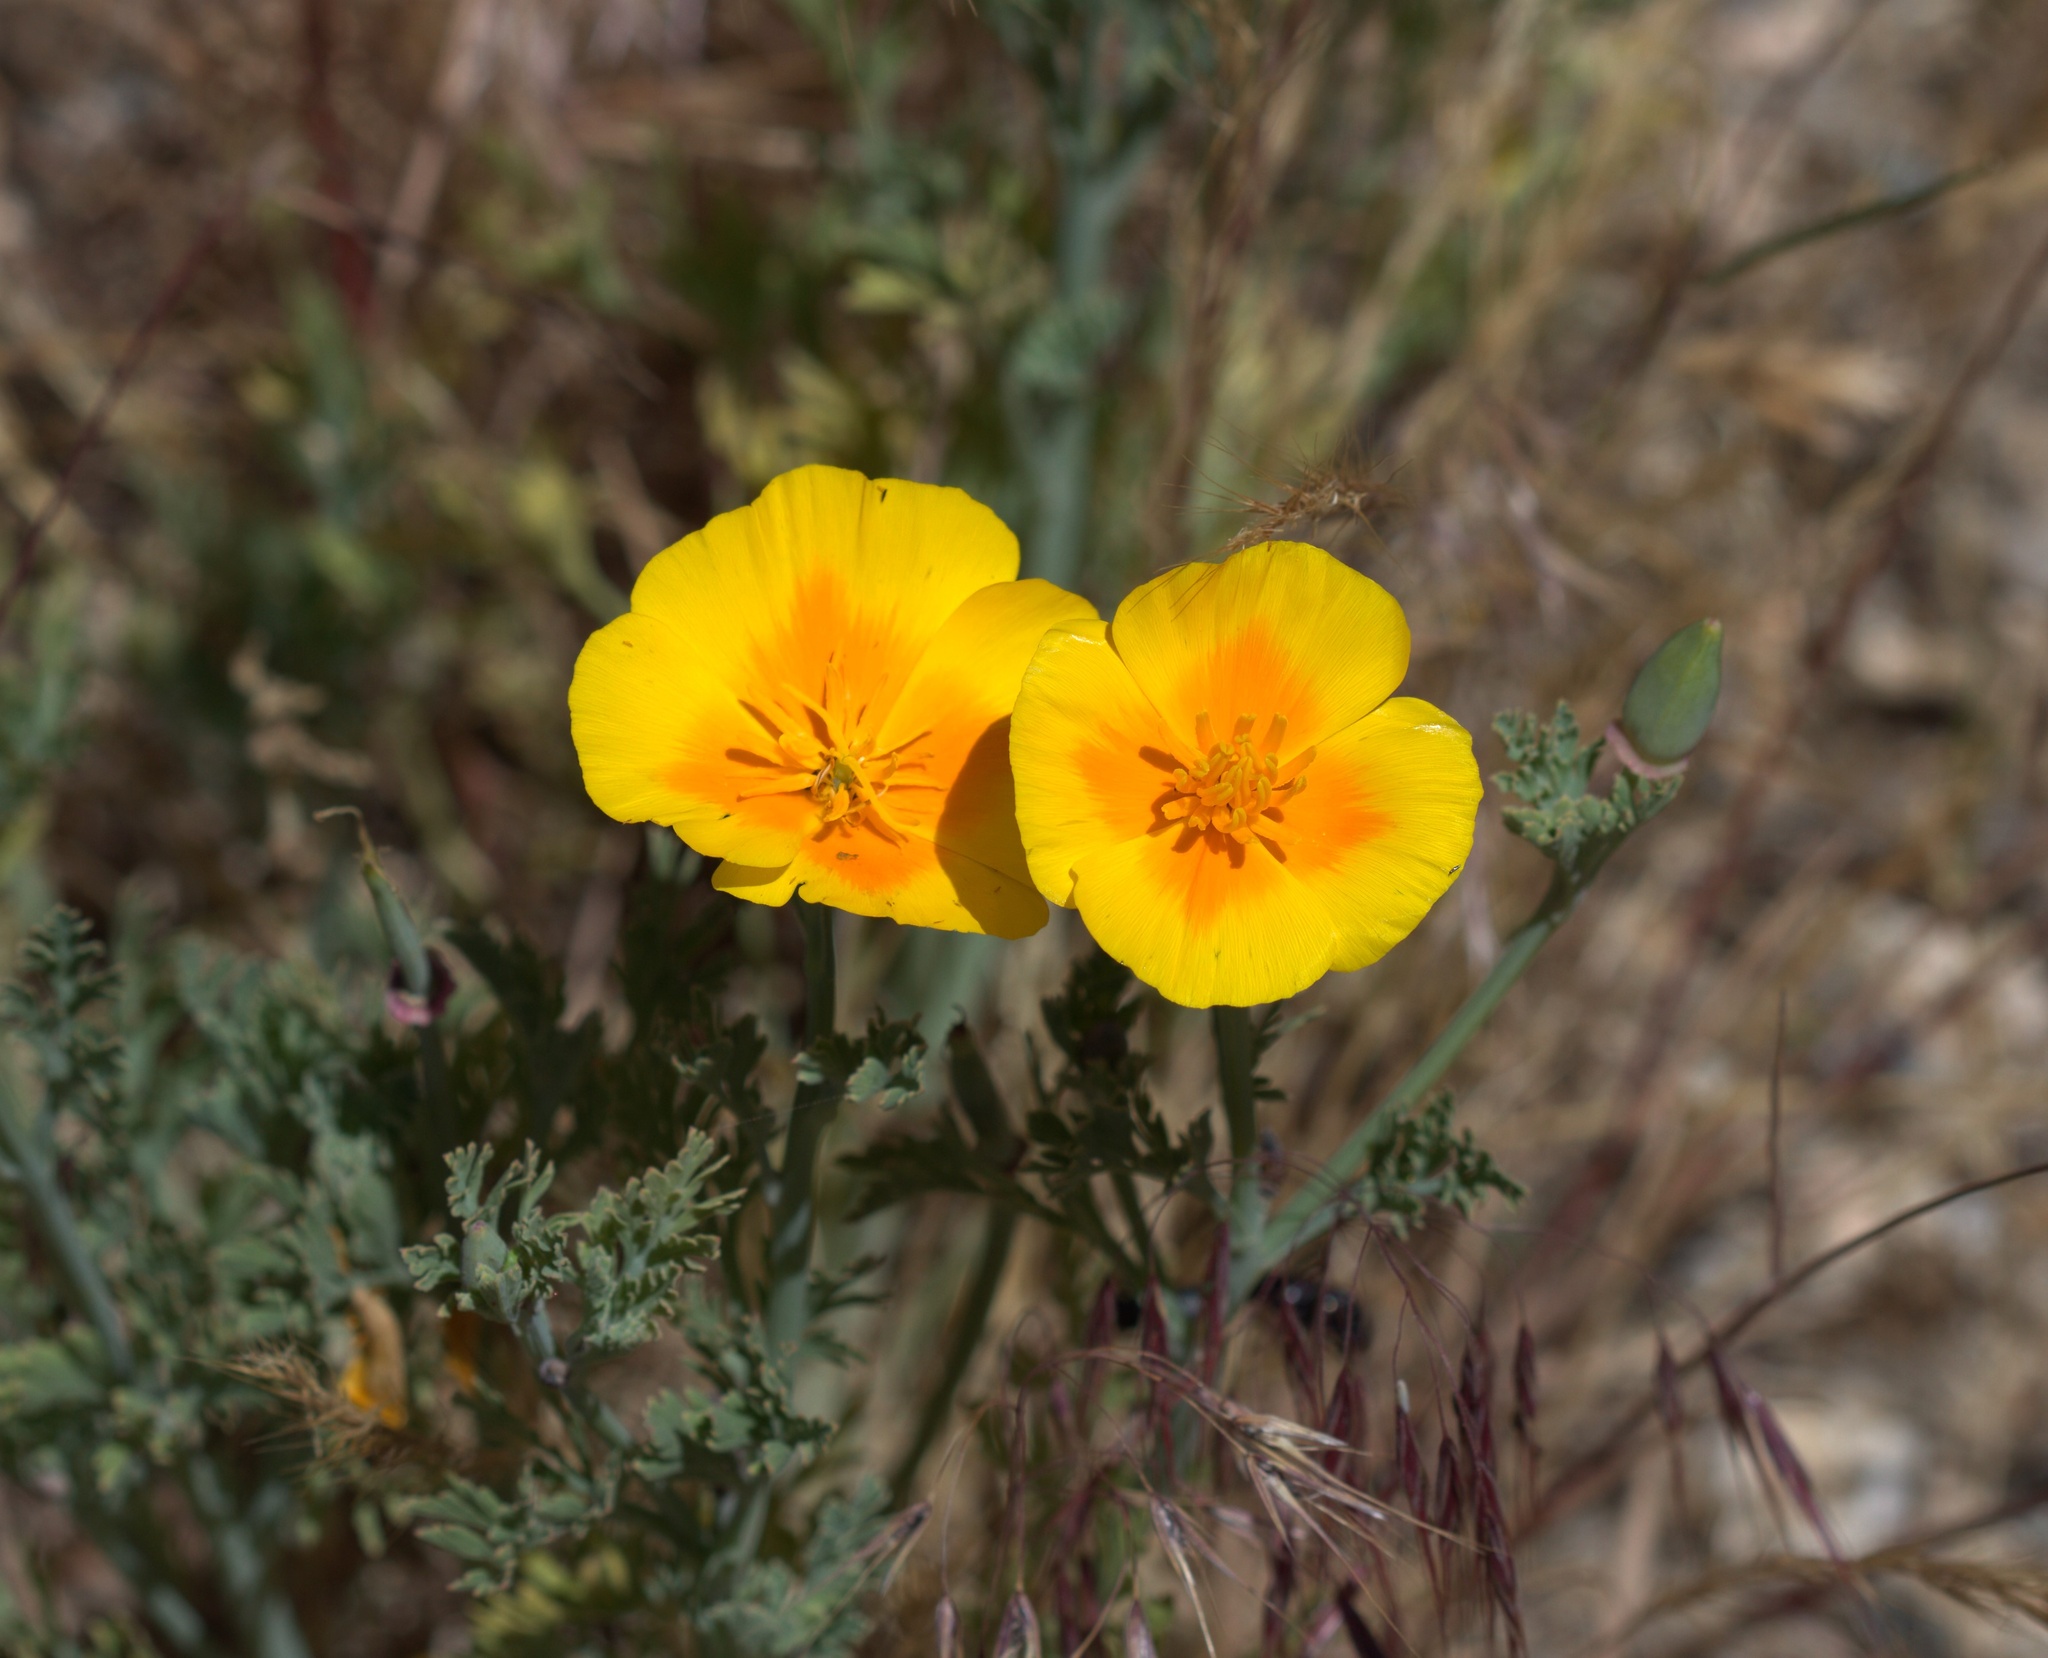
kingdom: Plantae
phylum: Tracheophyta
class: Magnoliopsida
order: Ranunculales
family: Papaveraceae
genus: Eschscholzia
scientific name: Eschscholzia californica
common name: California poppy
